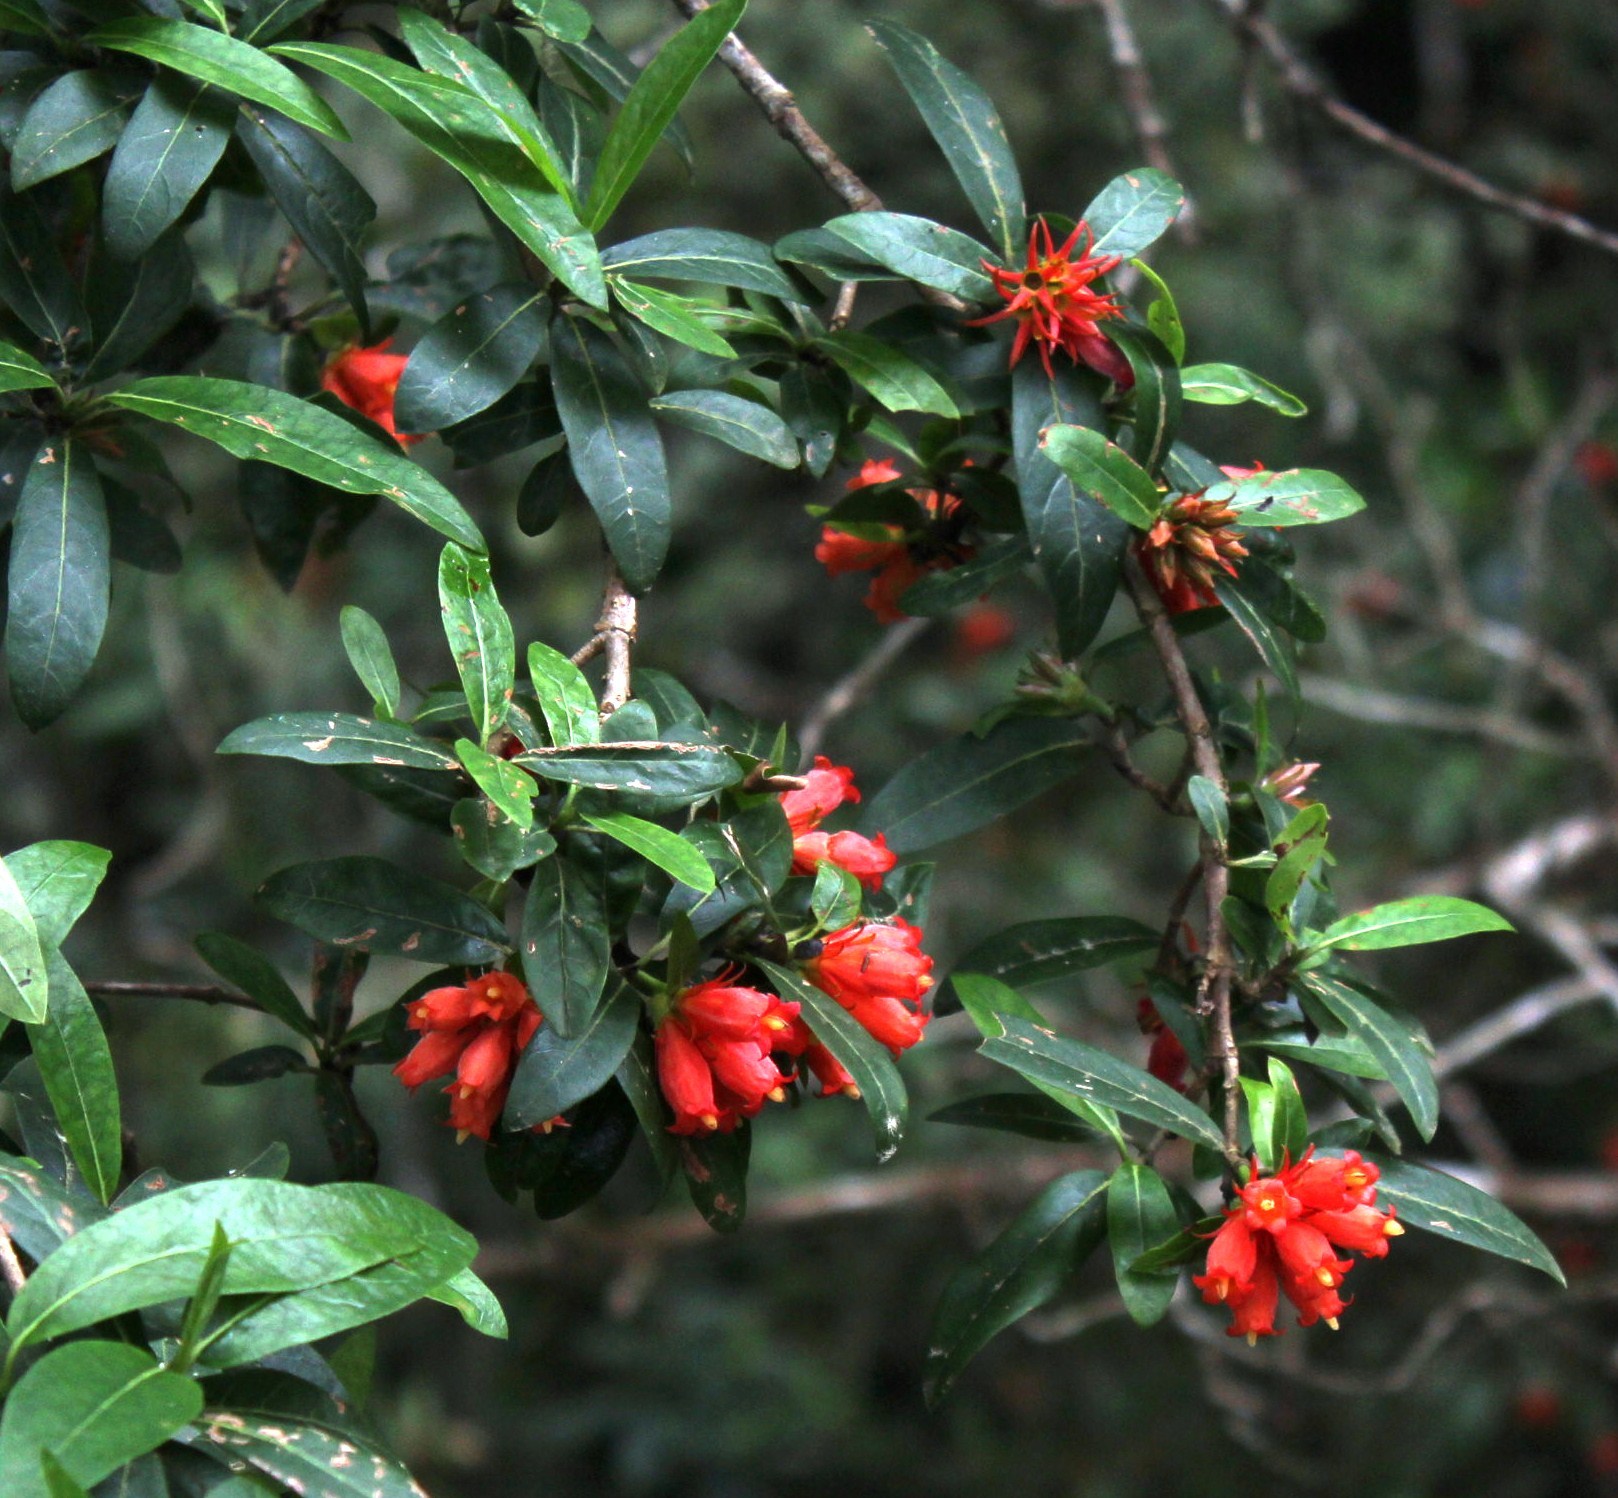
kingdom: Plantae
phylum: Tracheophyta
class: Magnoliopsida
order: Gentianales
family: Rubiaceae
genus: Burchellia
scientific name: Burchellia bubalina
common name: Wild pomegranate
